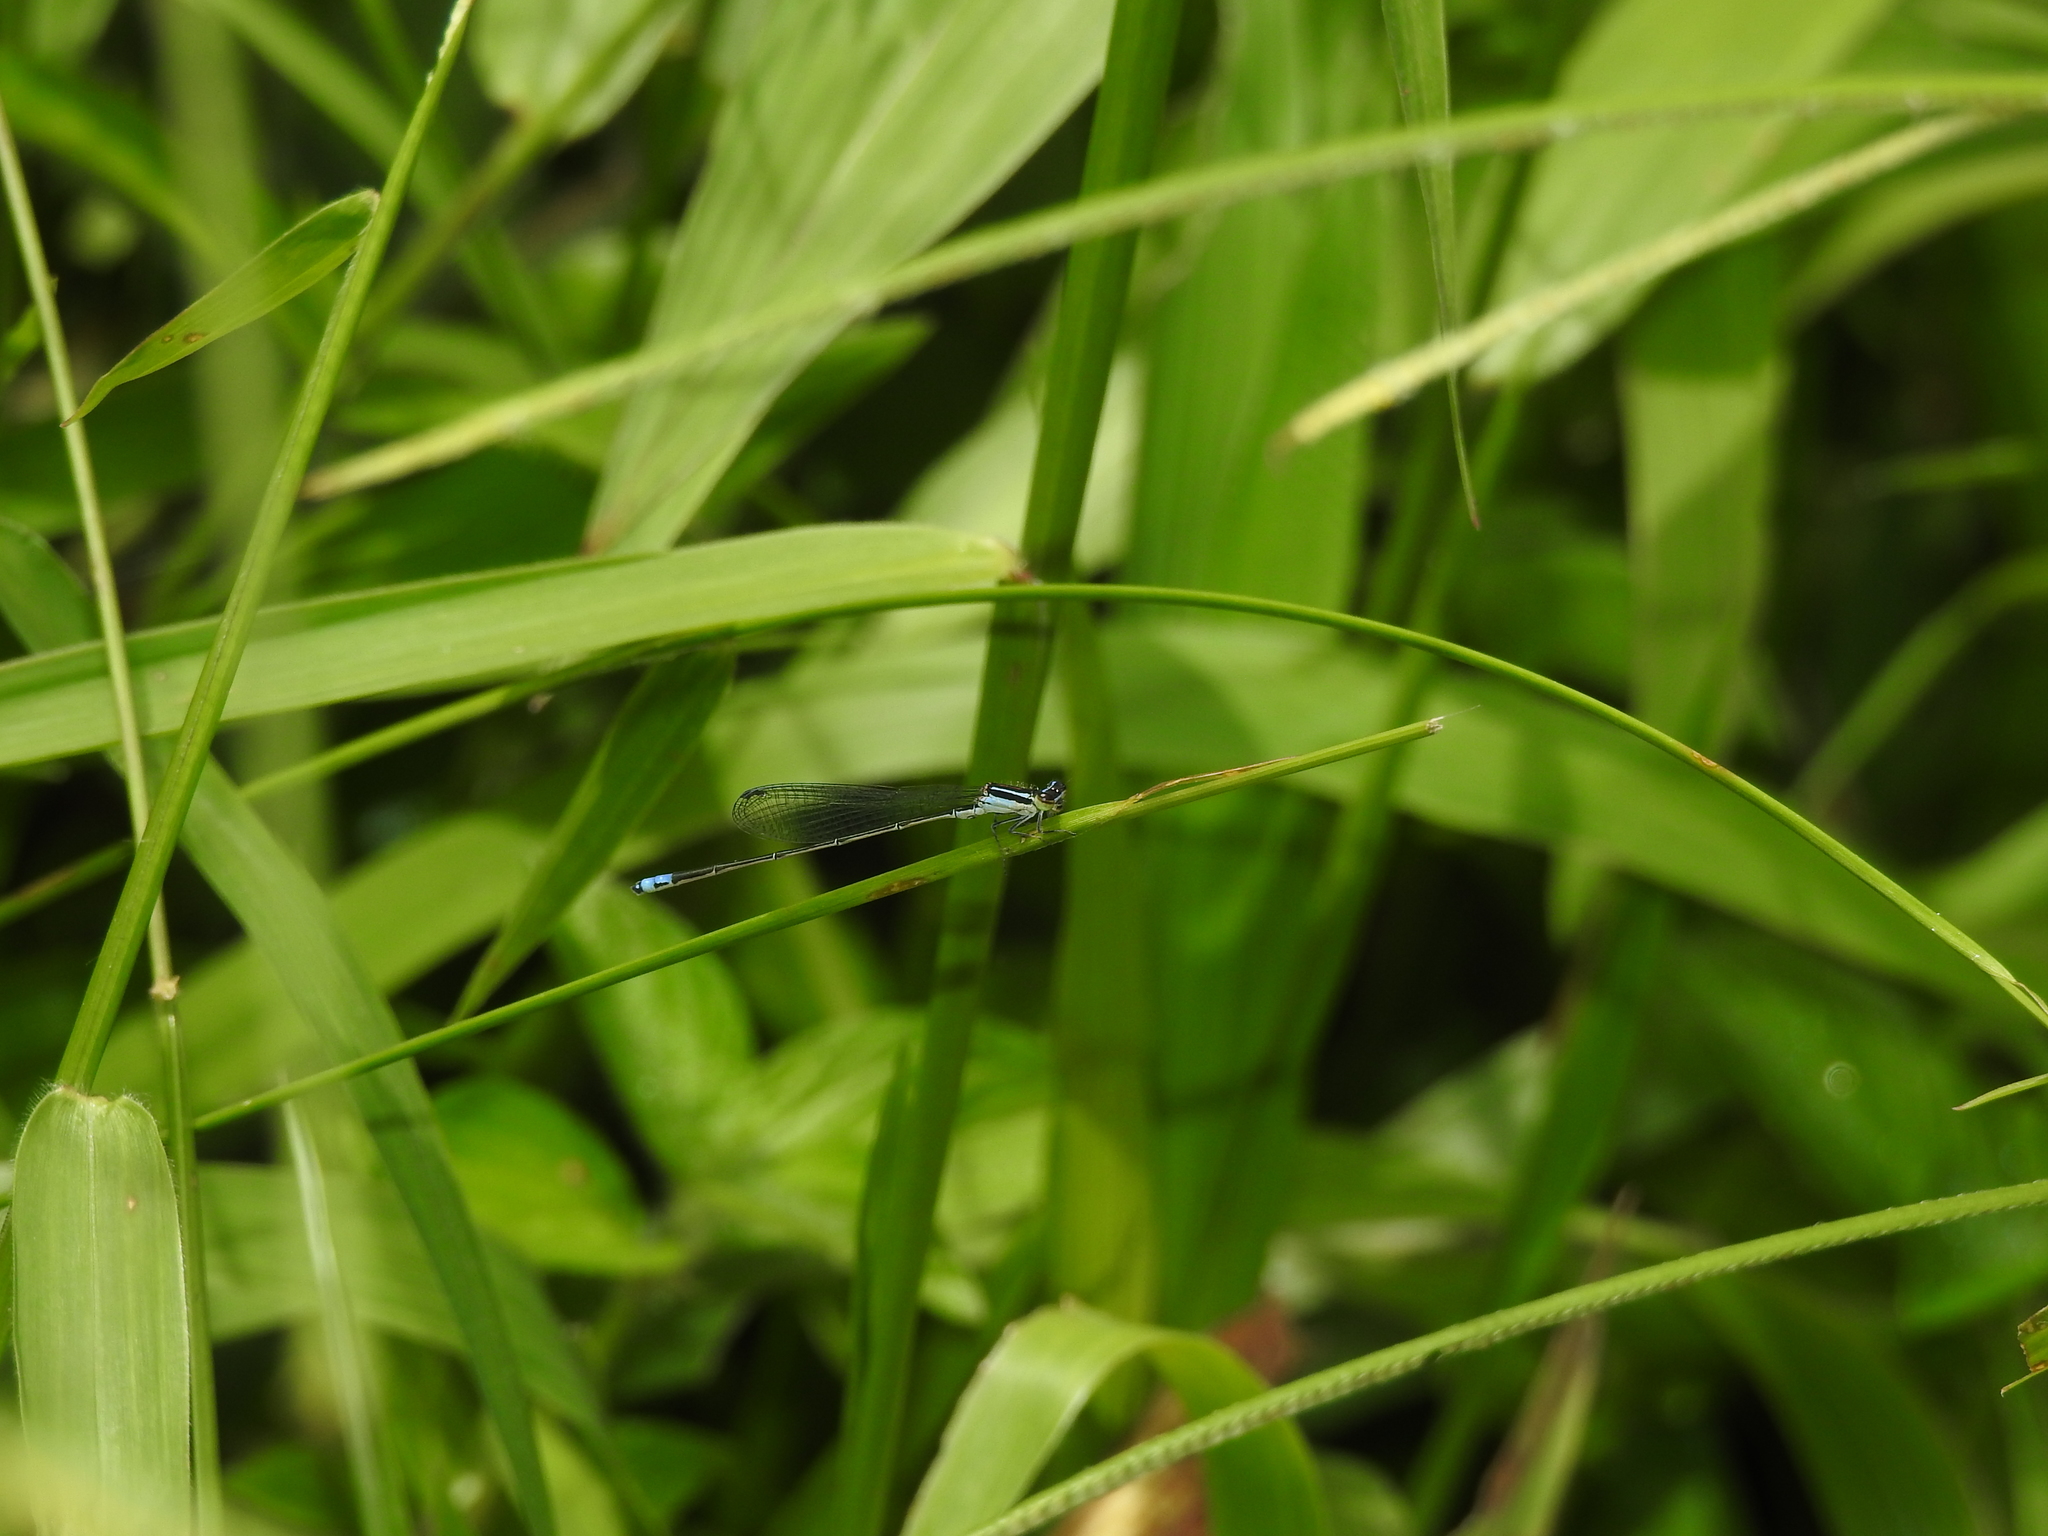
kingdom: Animalia
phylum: Arthropoda
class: Insecta
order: Odonata
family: Coenagrionidae
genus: Aciagrion
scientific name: Aciagrion approximans
